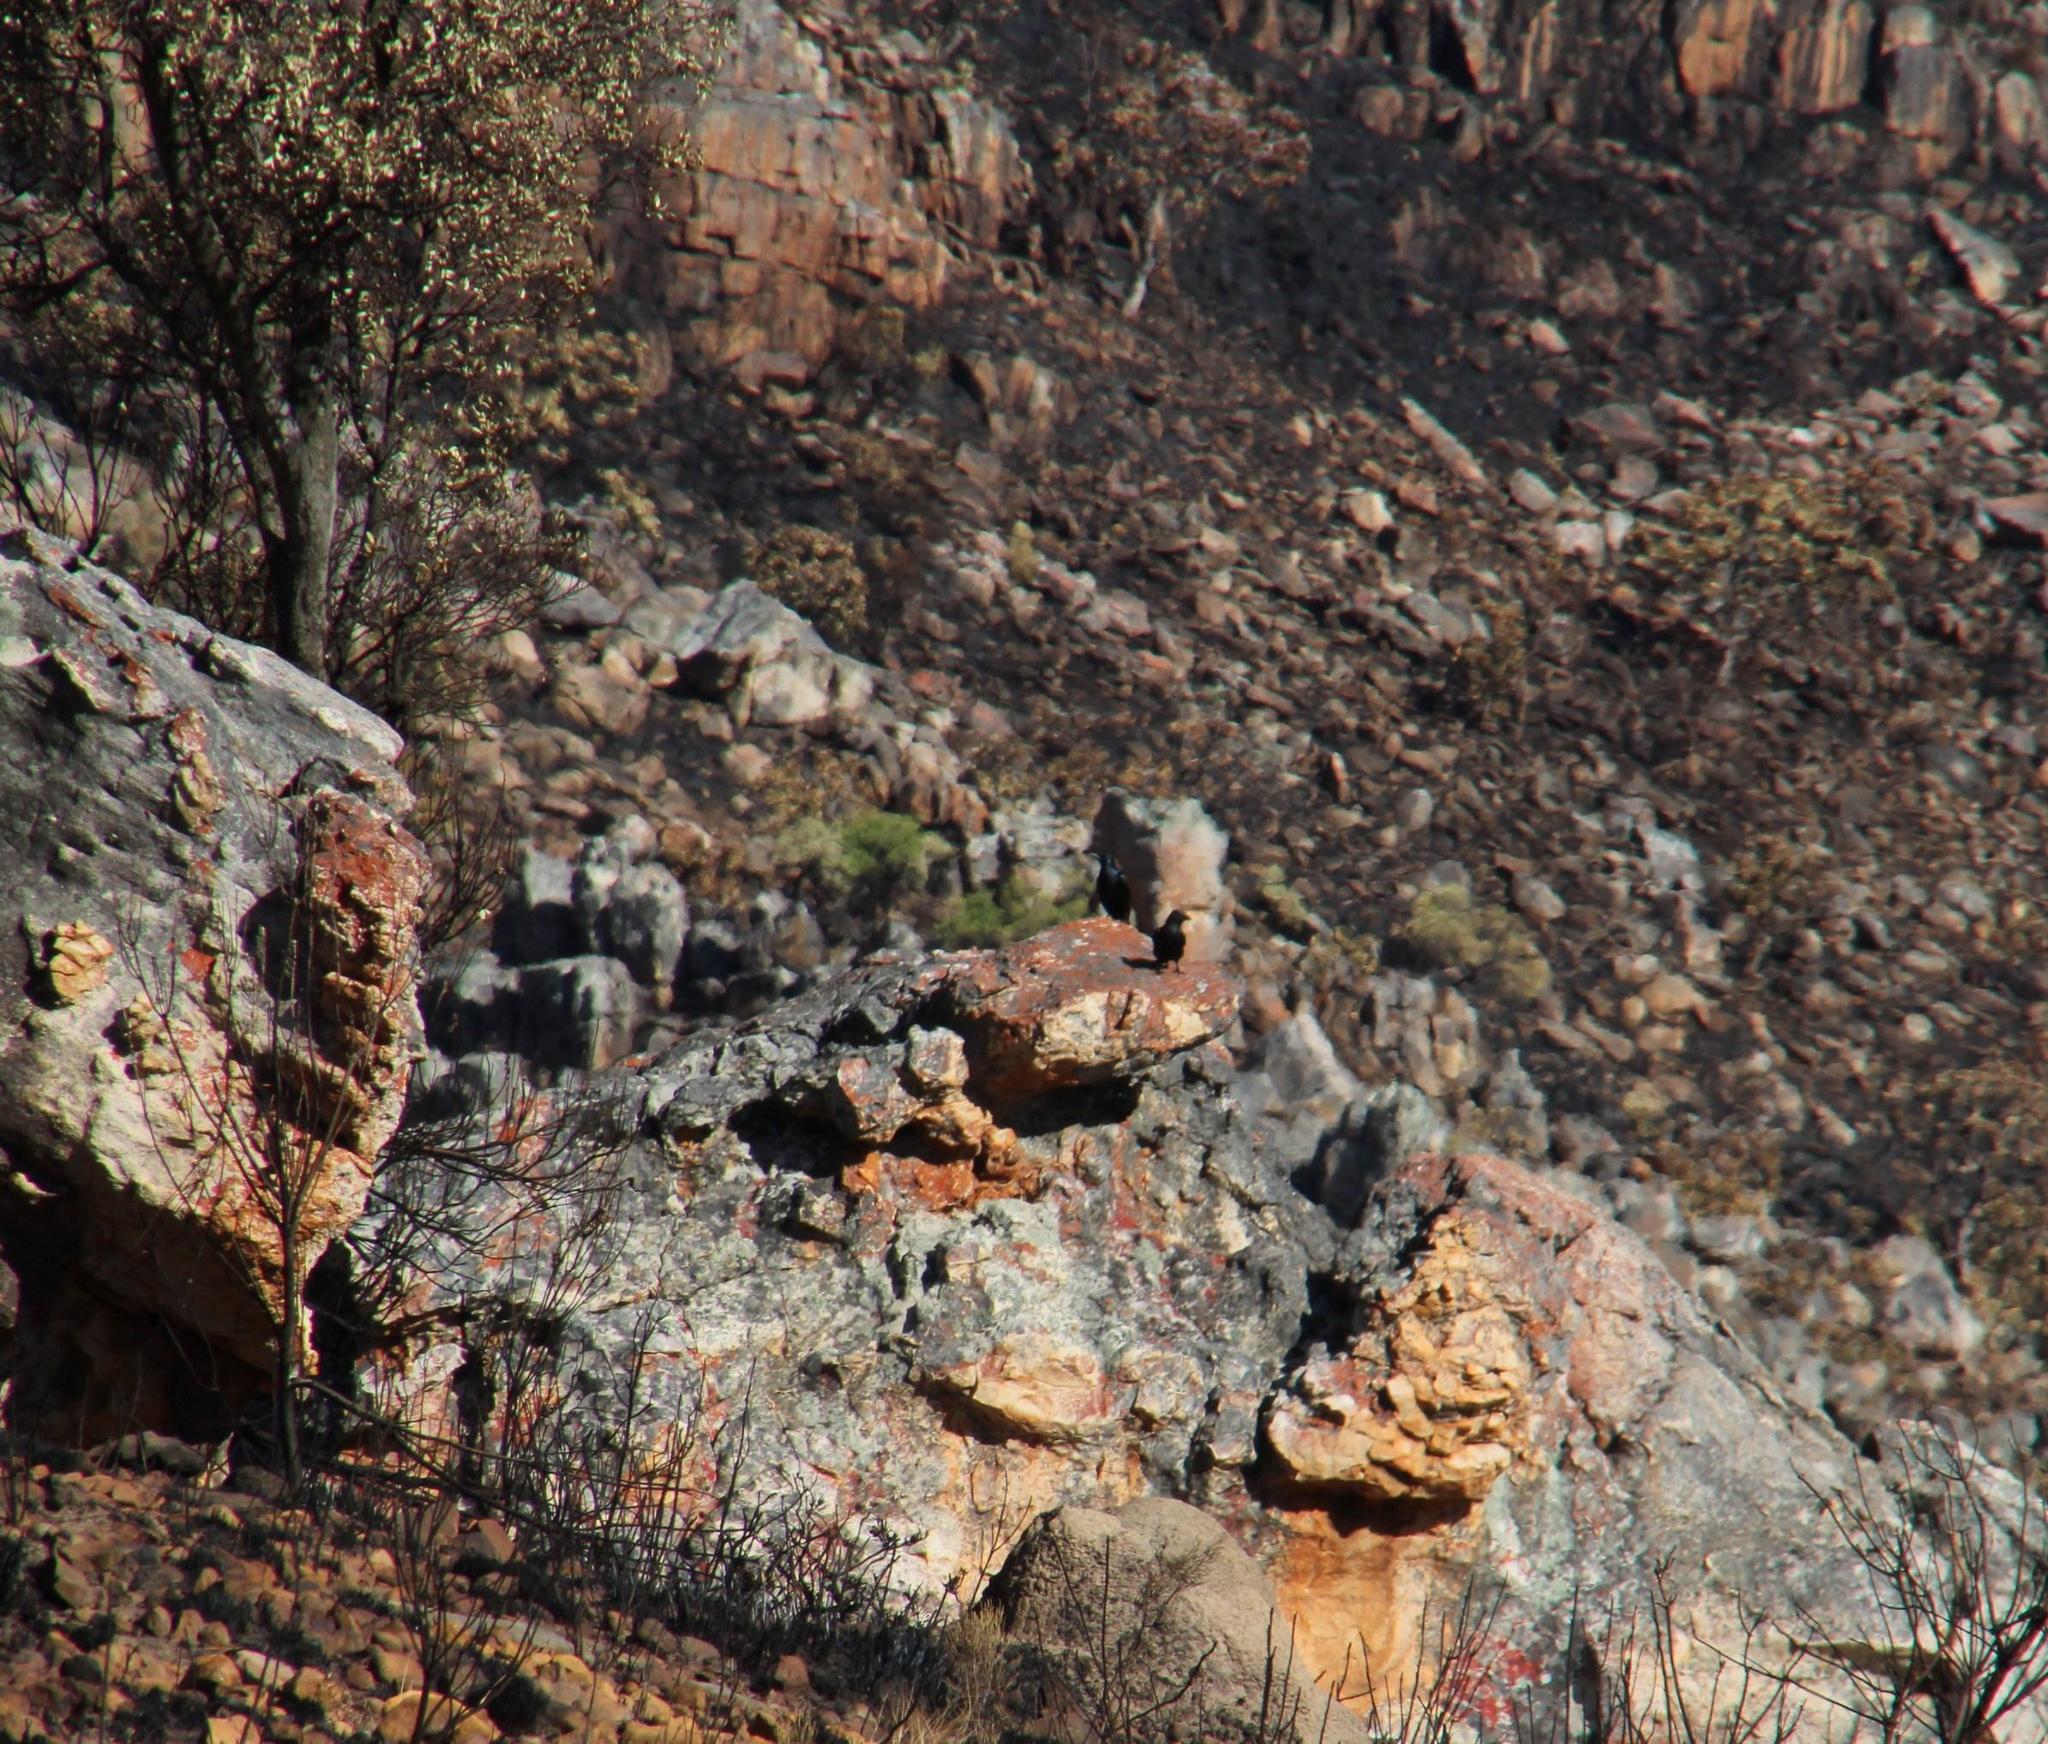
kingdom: Animalia
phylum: Chordata
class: Aves
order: Passeriformes
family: Sturnidae
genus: Onychognathus
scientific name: Onychognathus morio
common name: Red-winged starling
